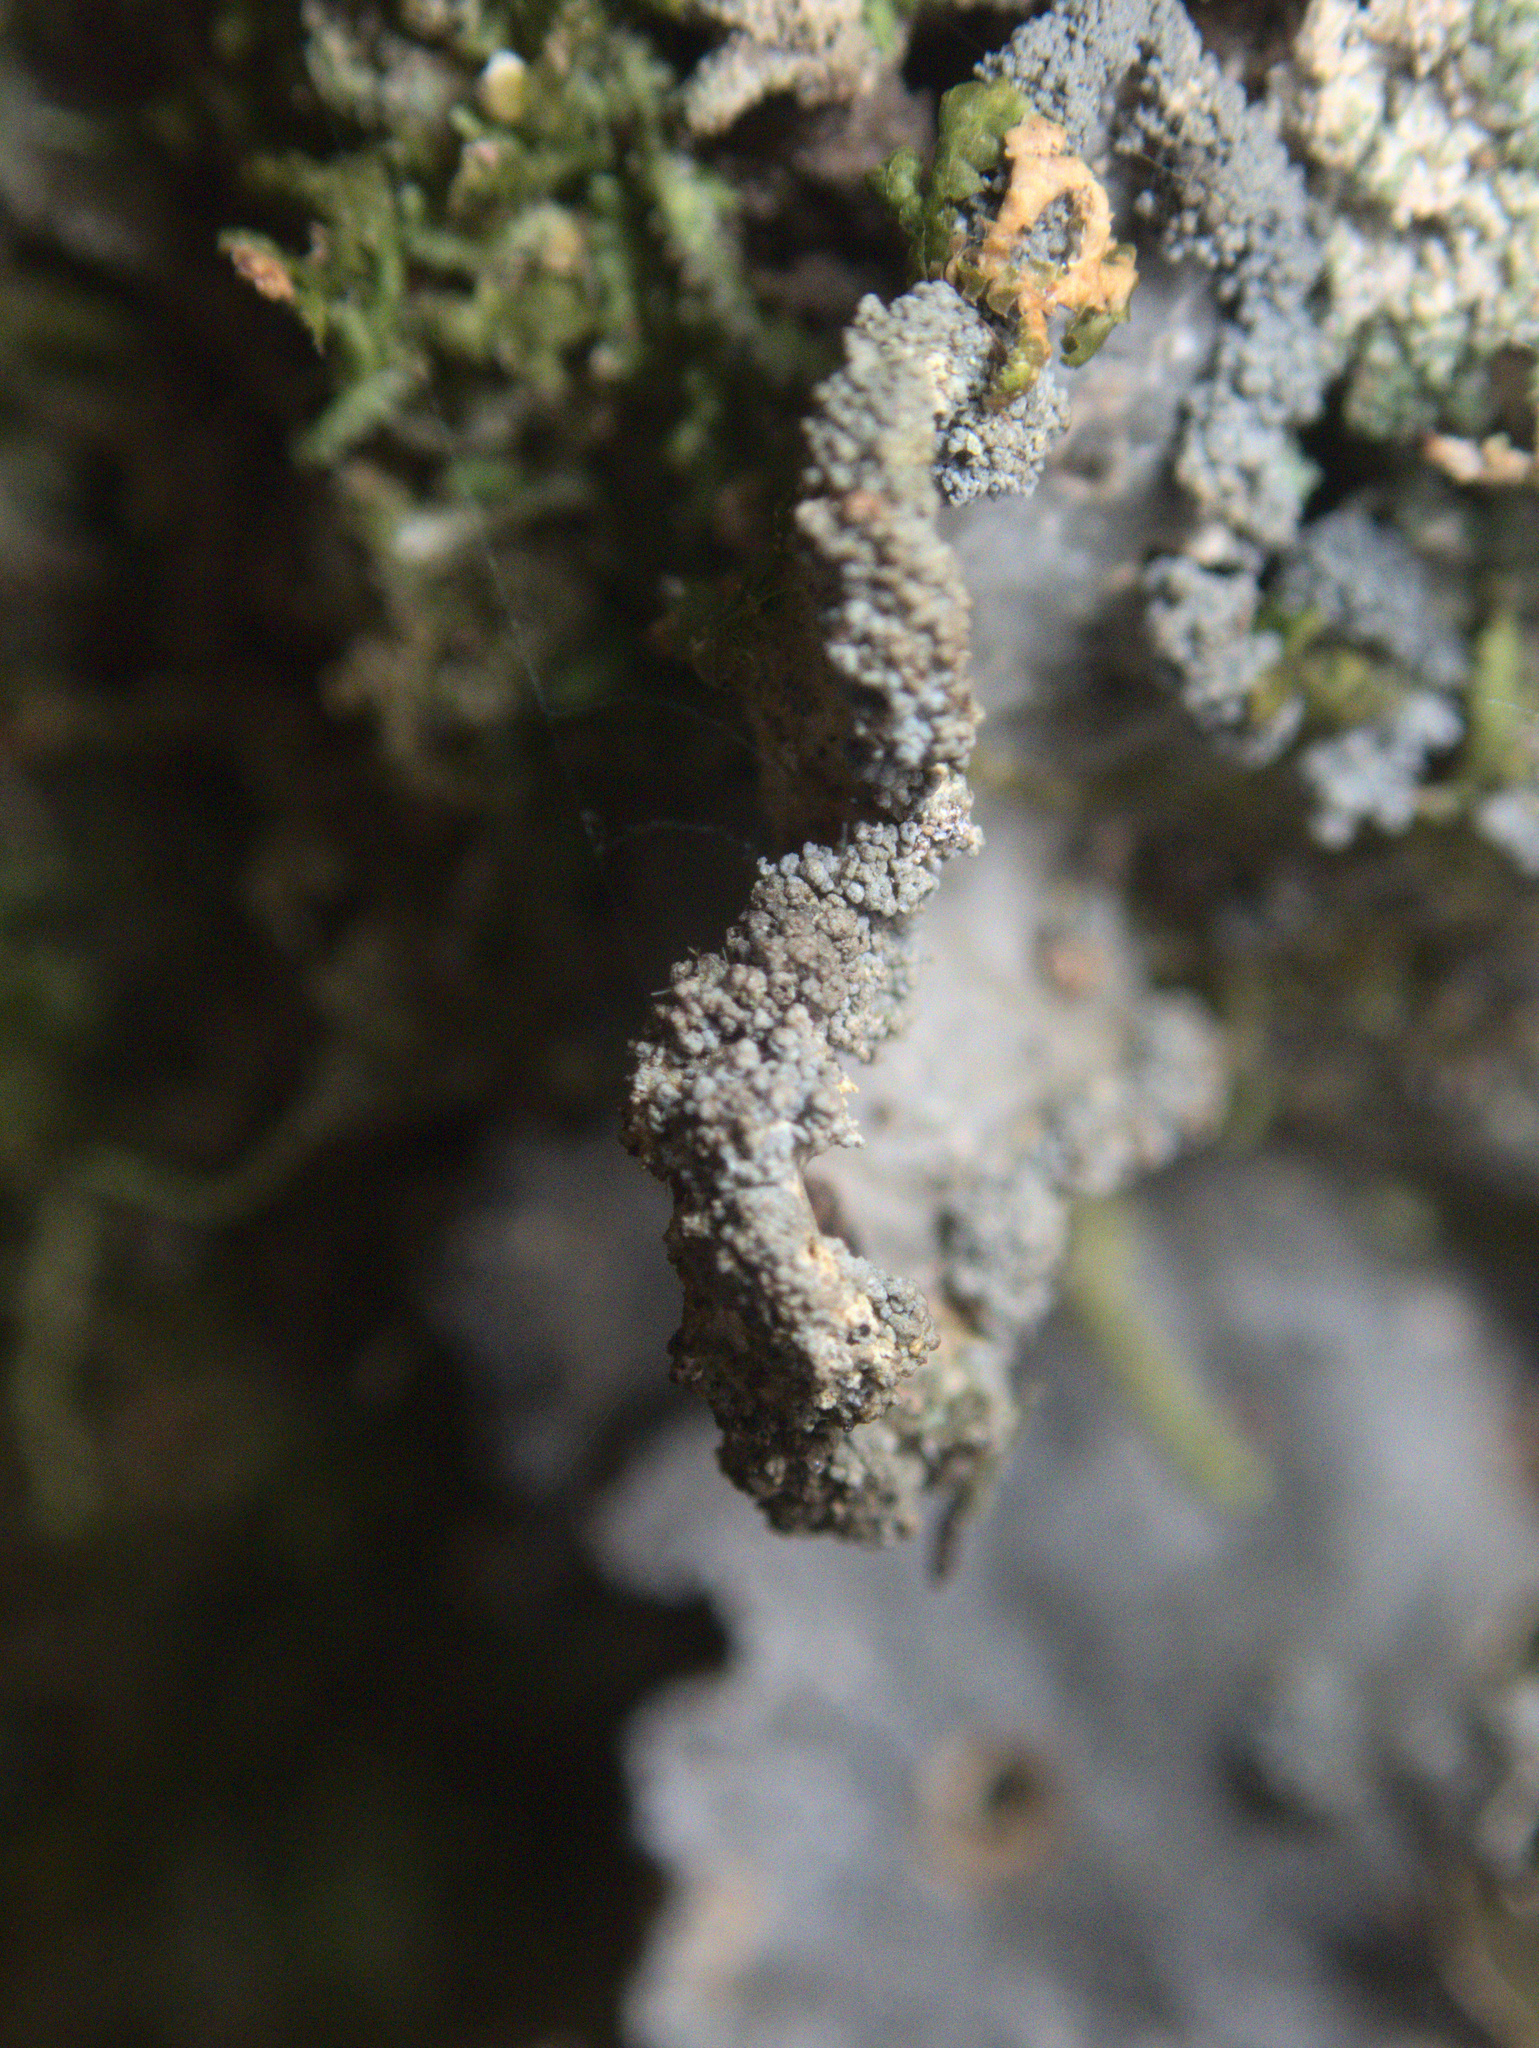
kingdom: Fungi
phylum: Ascomycota
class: Lecanoromycetes
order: Peltigerales
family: Lobariaceae
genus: Sticta
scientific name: Sticta limbata
